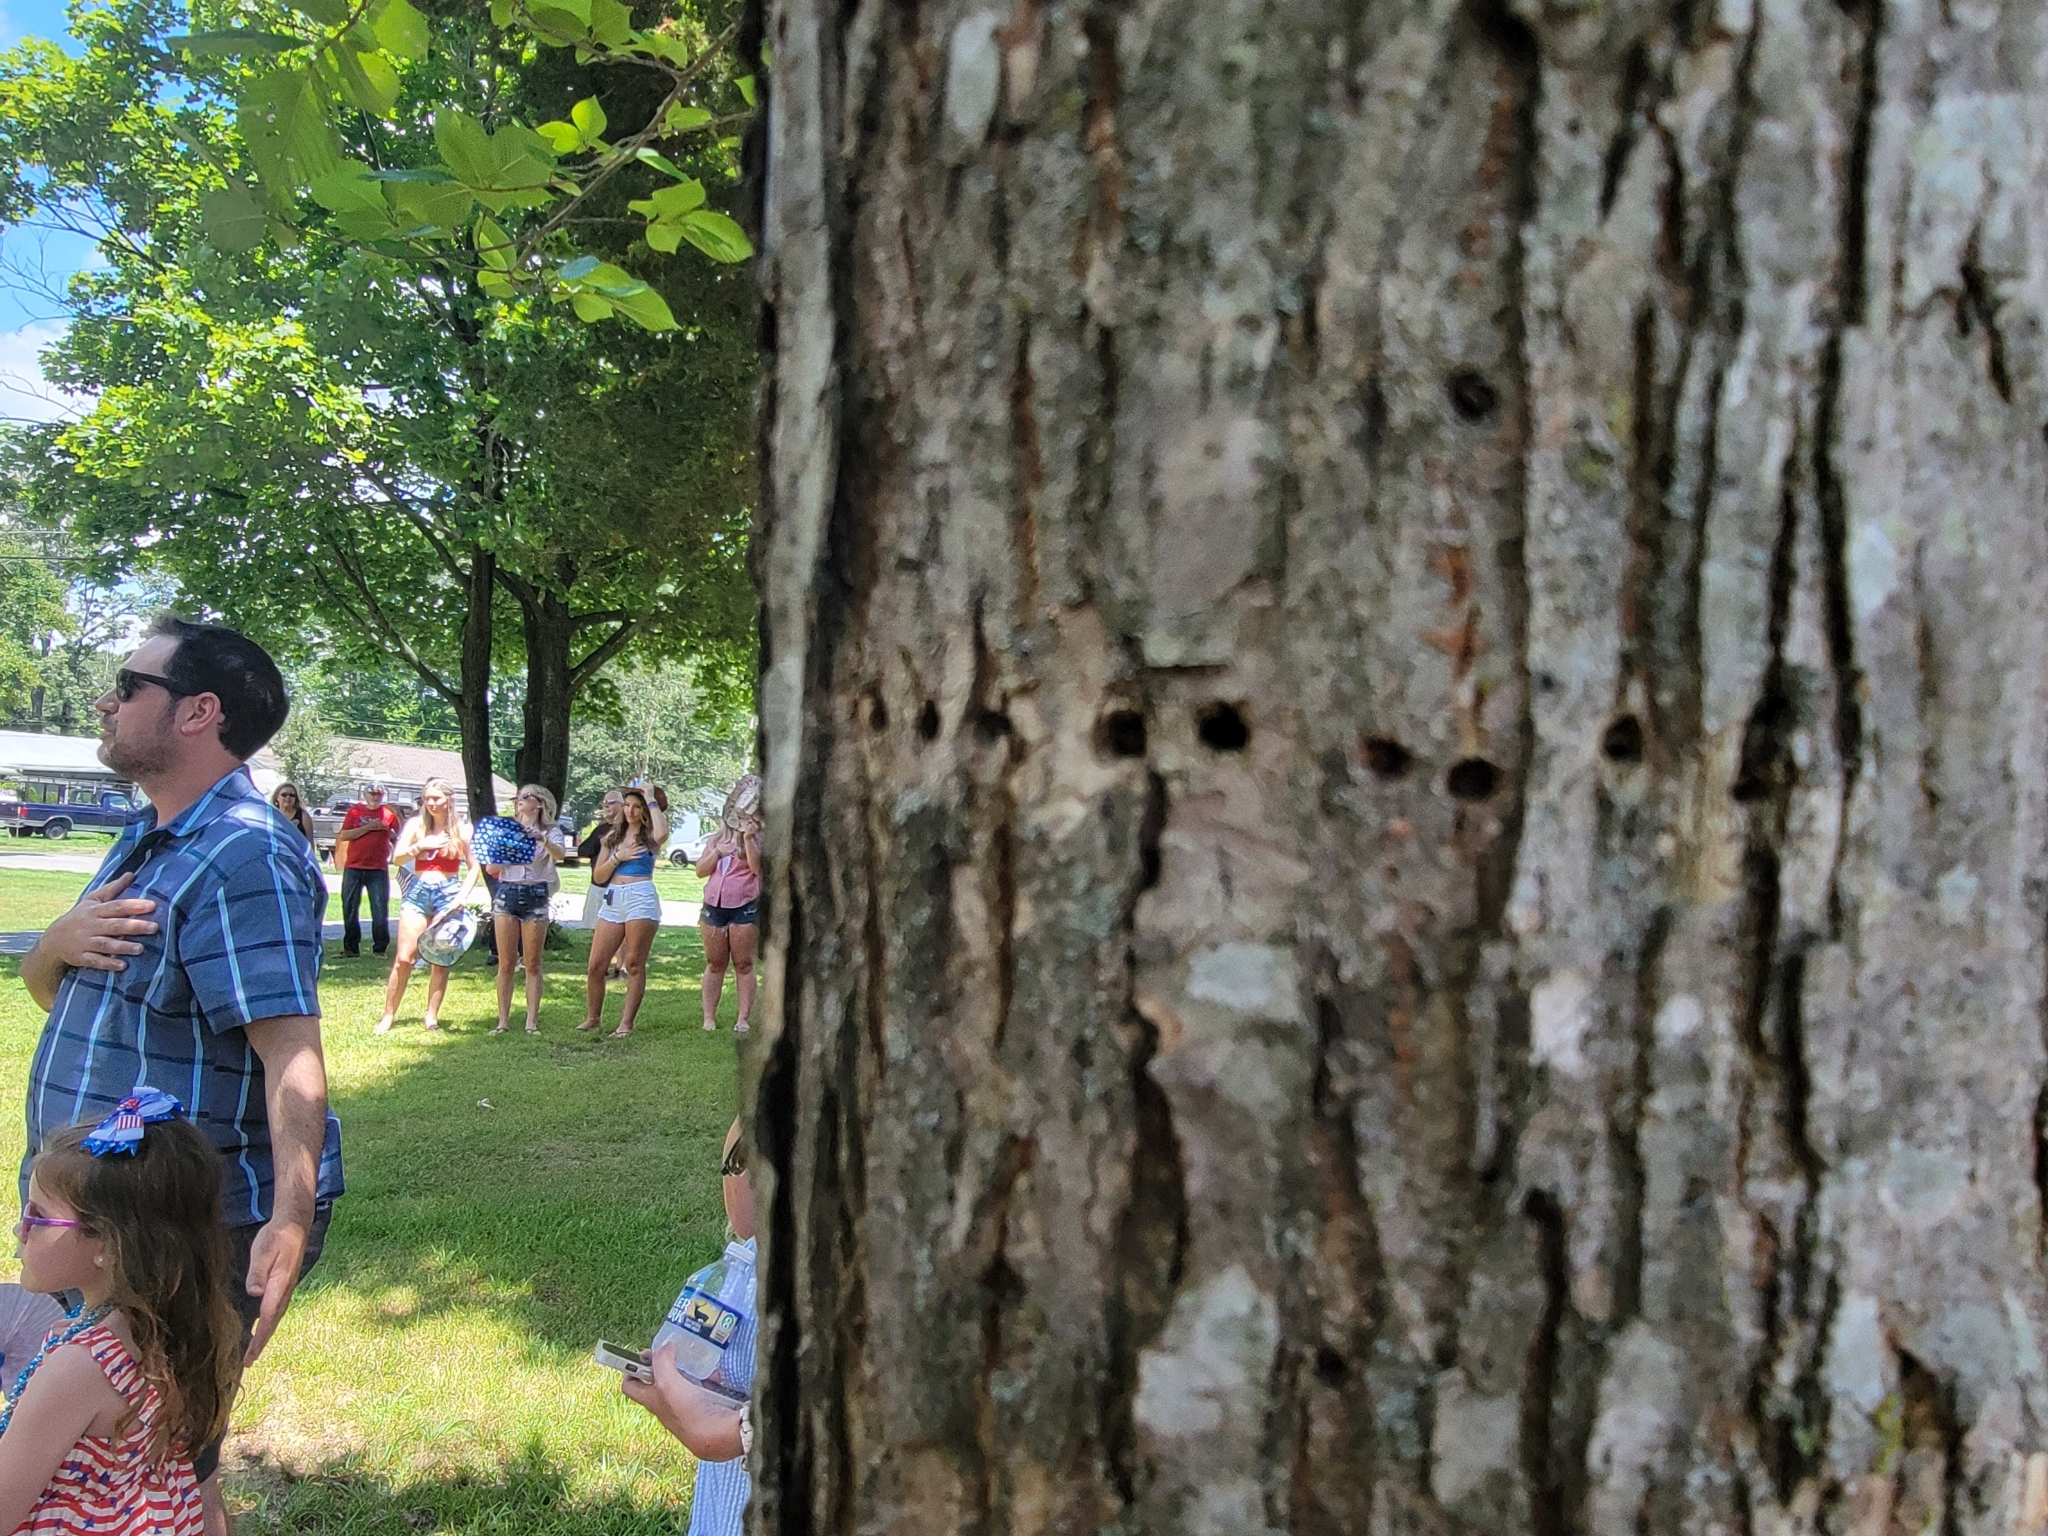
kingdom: Animalia
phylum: Chordata
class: Aves
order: Piciformes
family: Picidae
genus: Sphyrapicus
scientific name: Sphyrapicus varius
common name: Yellow-bellied sapsucker
